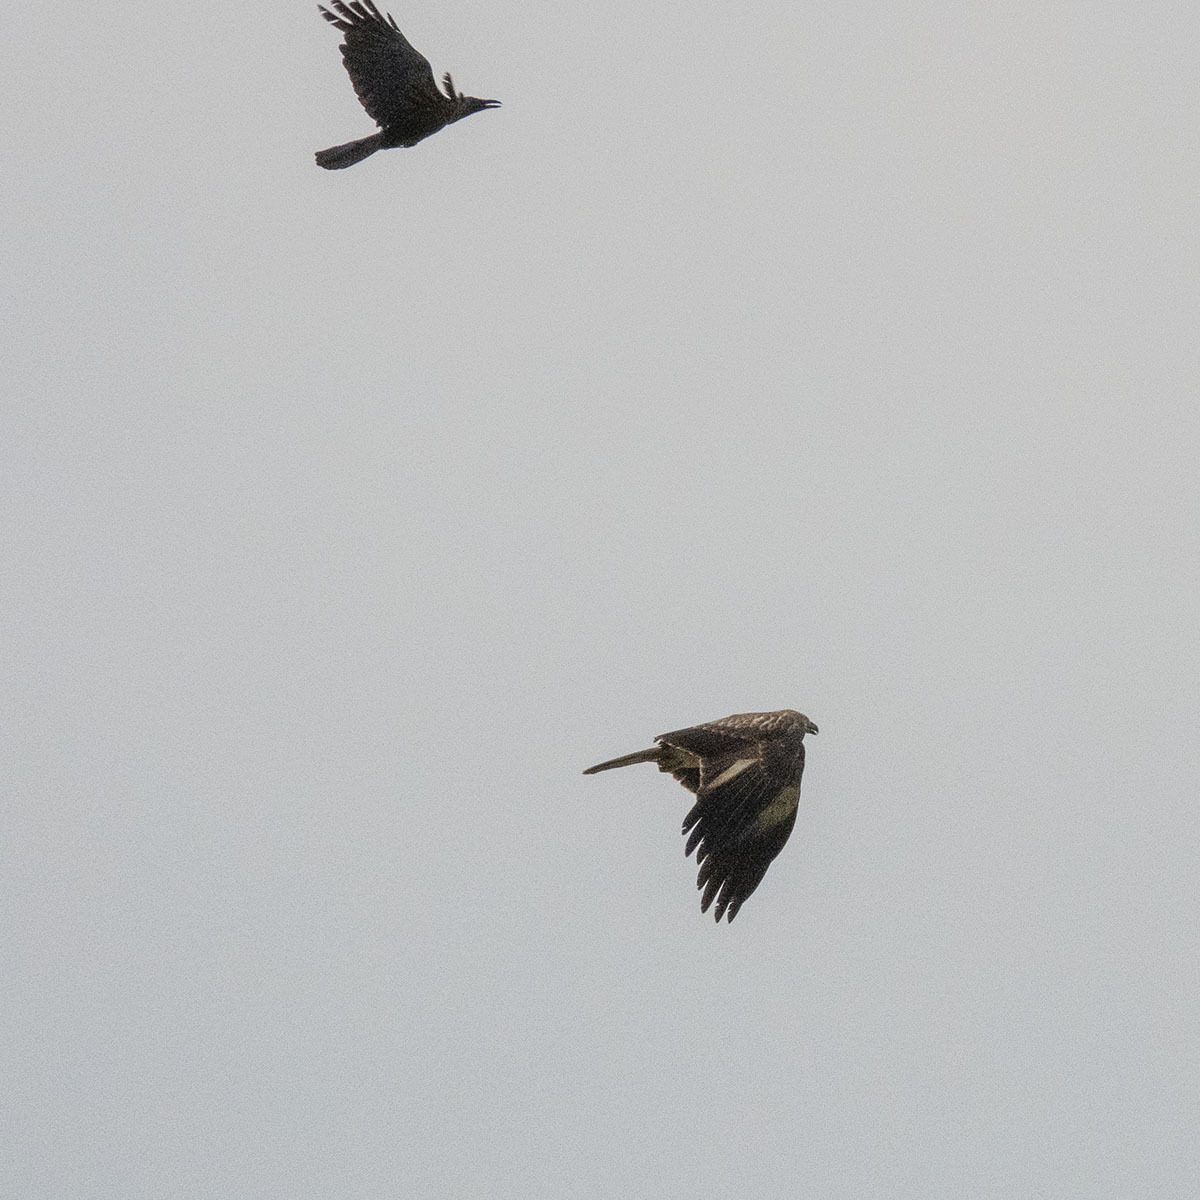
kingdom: Animalia
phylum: Chordata
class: Aves
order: Accipitriformes
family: Accipitridae
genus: Pernis
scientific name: Pernis ptilorhynchus
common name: Crested honey buzzard
